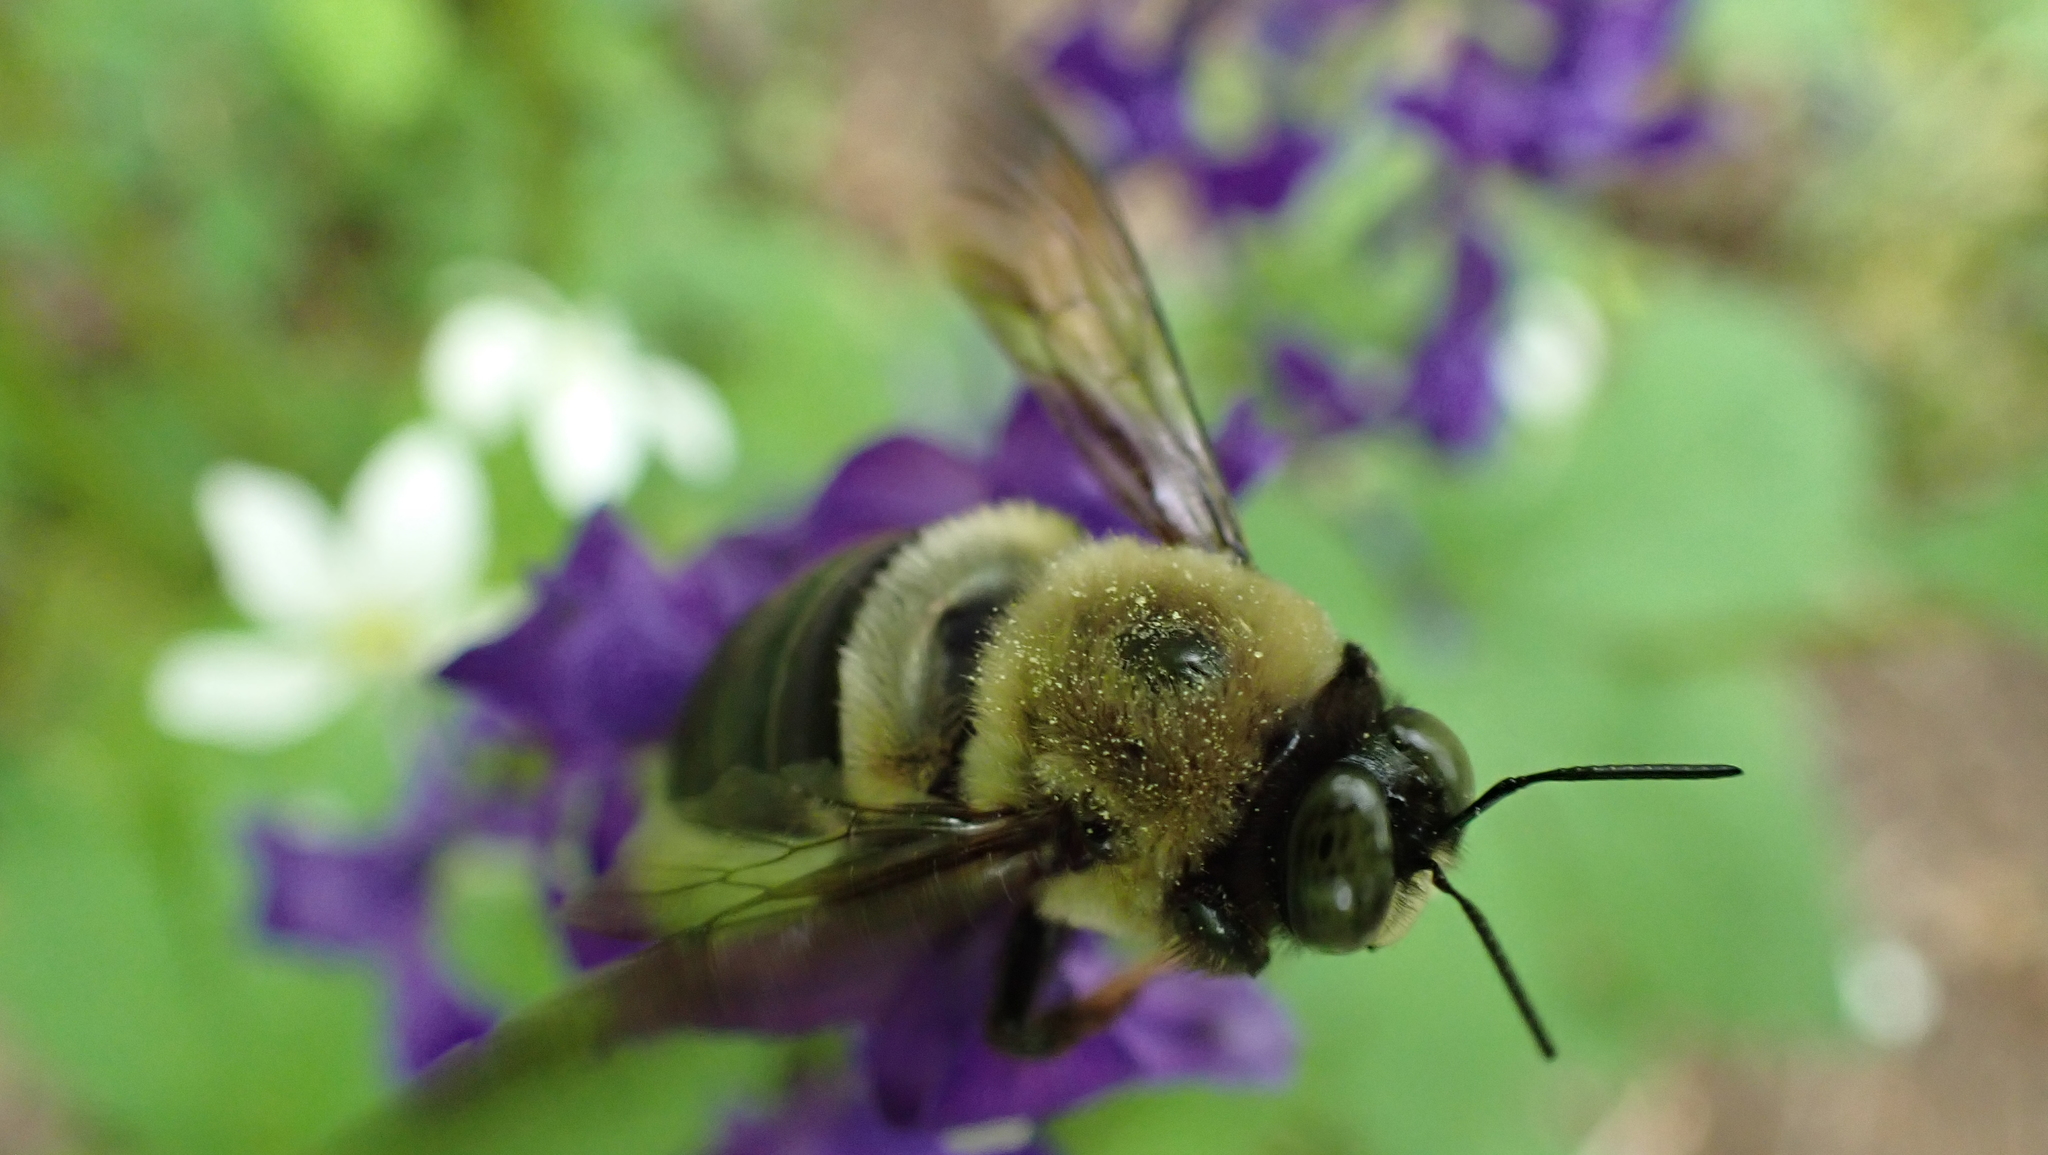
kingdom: Animalia
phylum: Arthropoda
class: Insecta
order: Hymenoptera
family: Apidae
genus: Xylocopa
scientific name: Xylocopa virginica
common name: Carpenter bee
